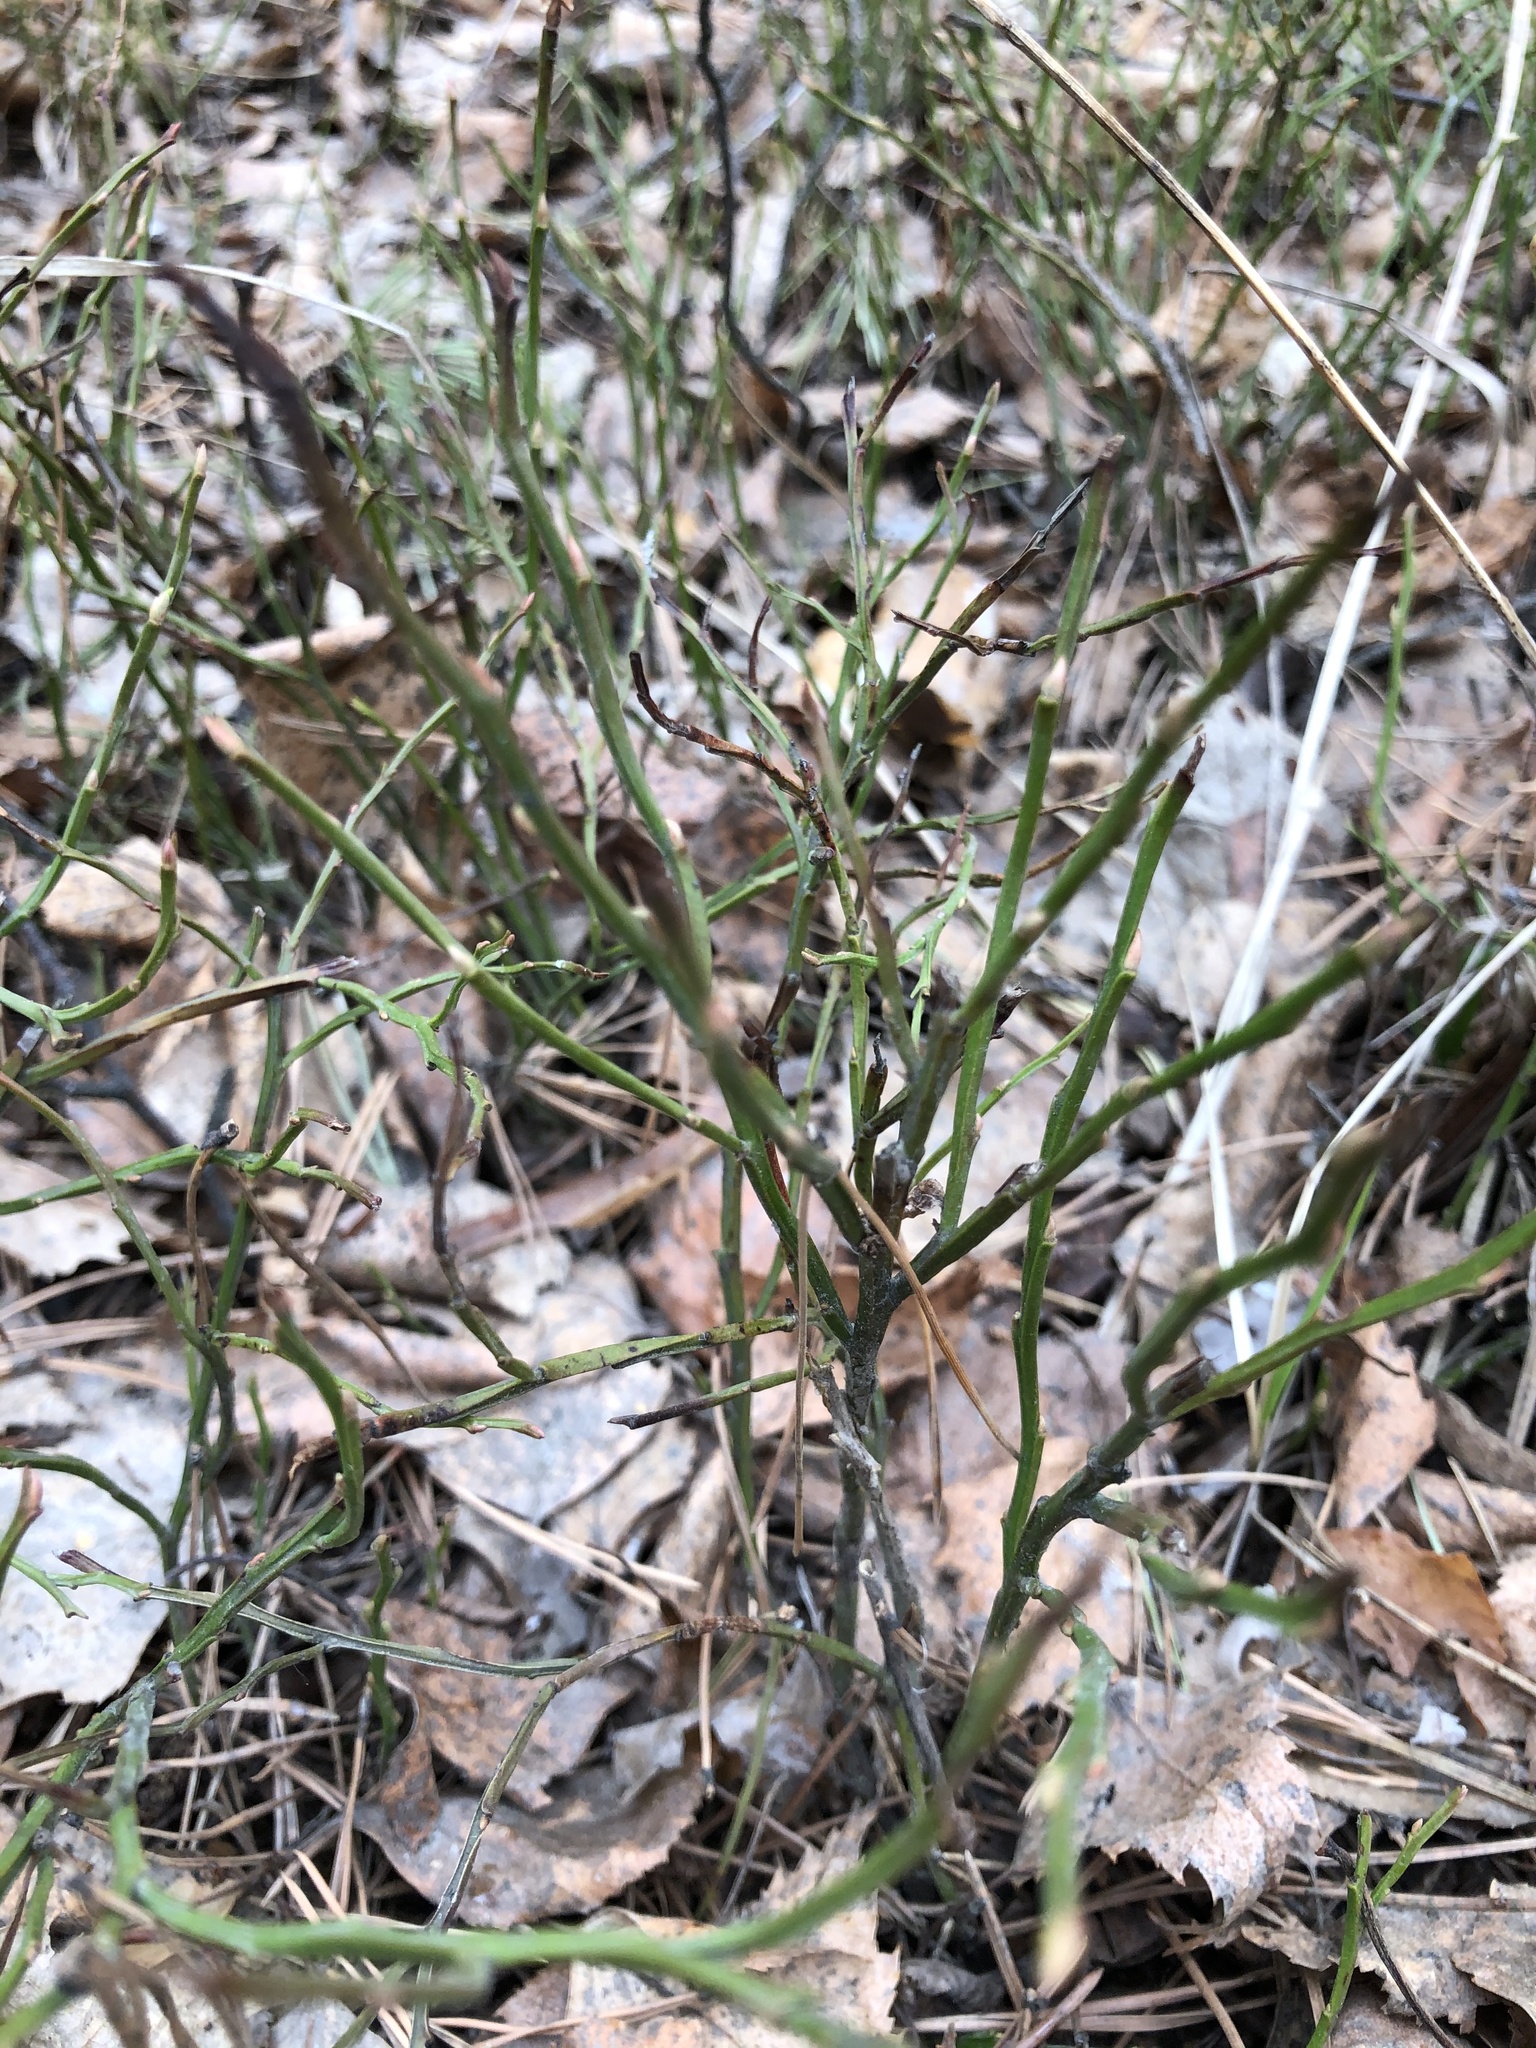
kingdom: Plantae
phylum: Tracheophyta
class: Magnoliopsida
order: Ericales
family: Ericaceae
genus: Vaccinium
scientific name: Vaccinium myrtillus
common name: Bilberry
